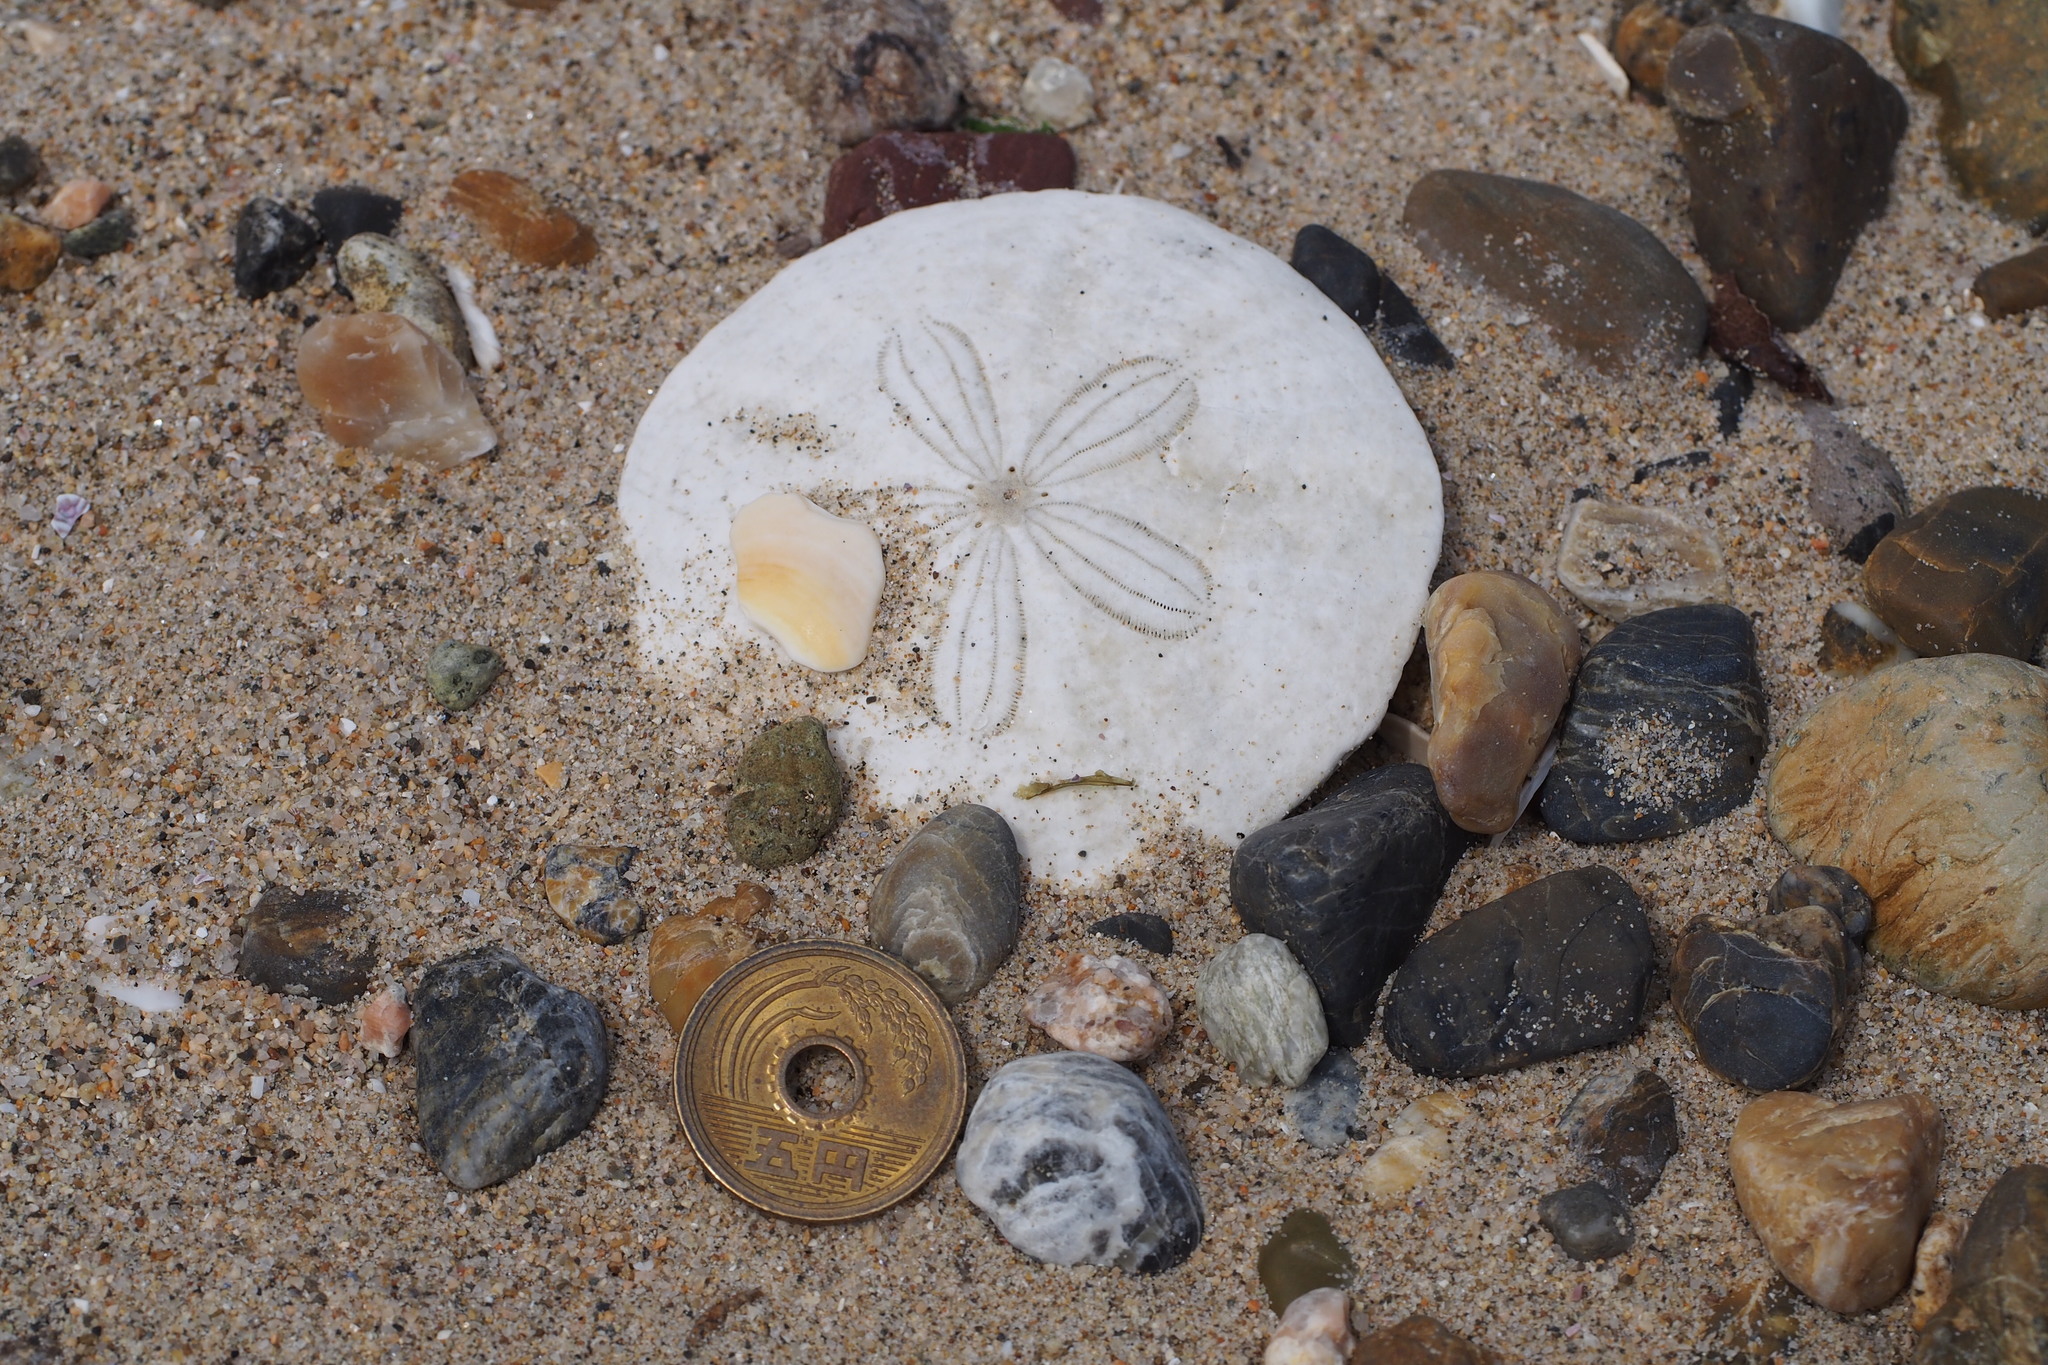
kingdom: Animalia
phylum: Echinodermata
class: Echinoidea
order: Echinolampadacea
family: Scutellidae
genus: Scaphechinus
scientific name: Scaphechinus mirabilis
